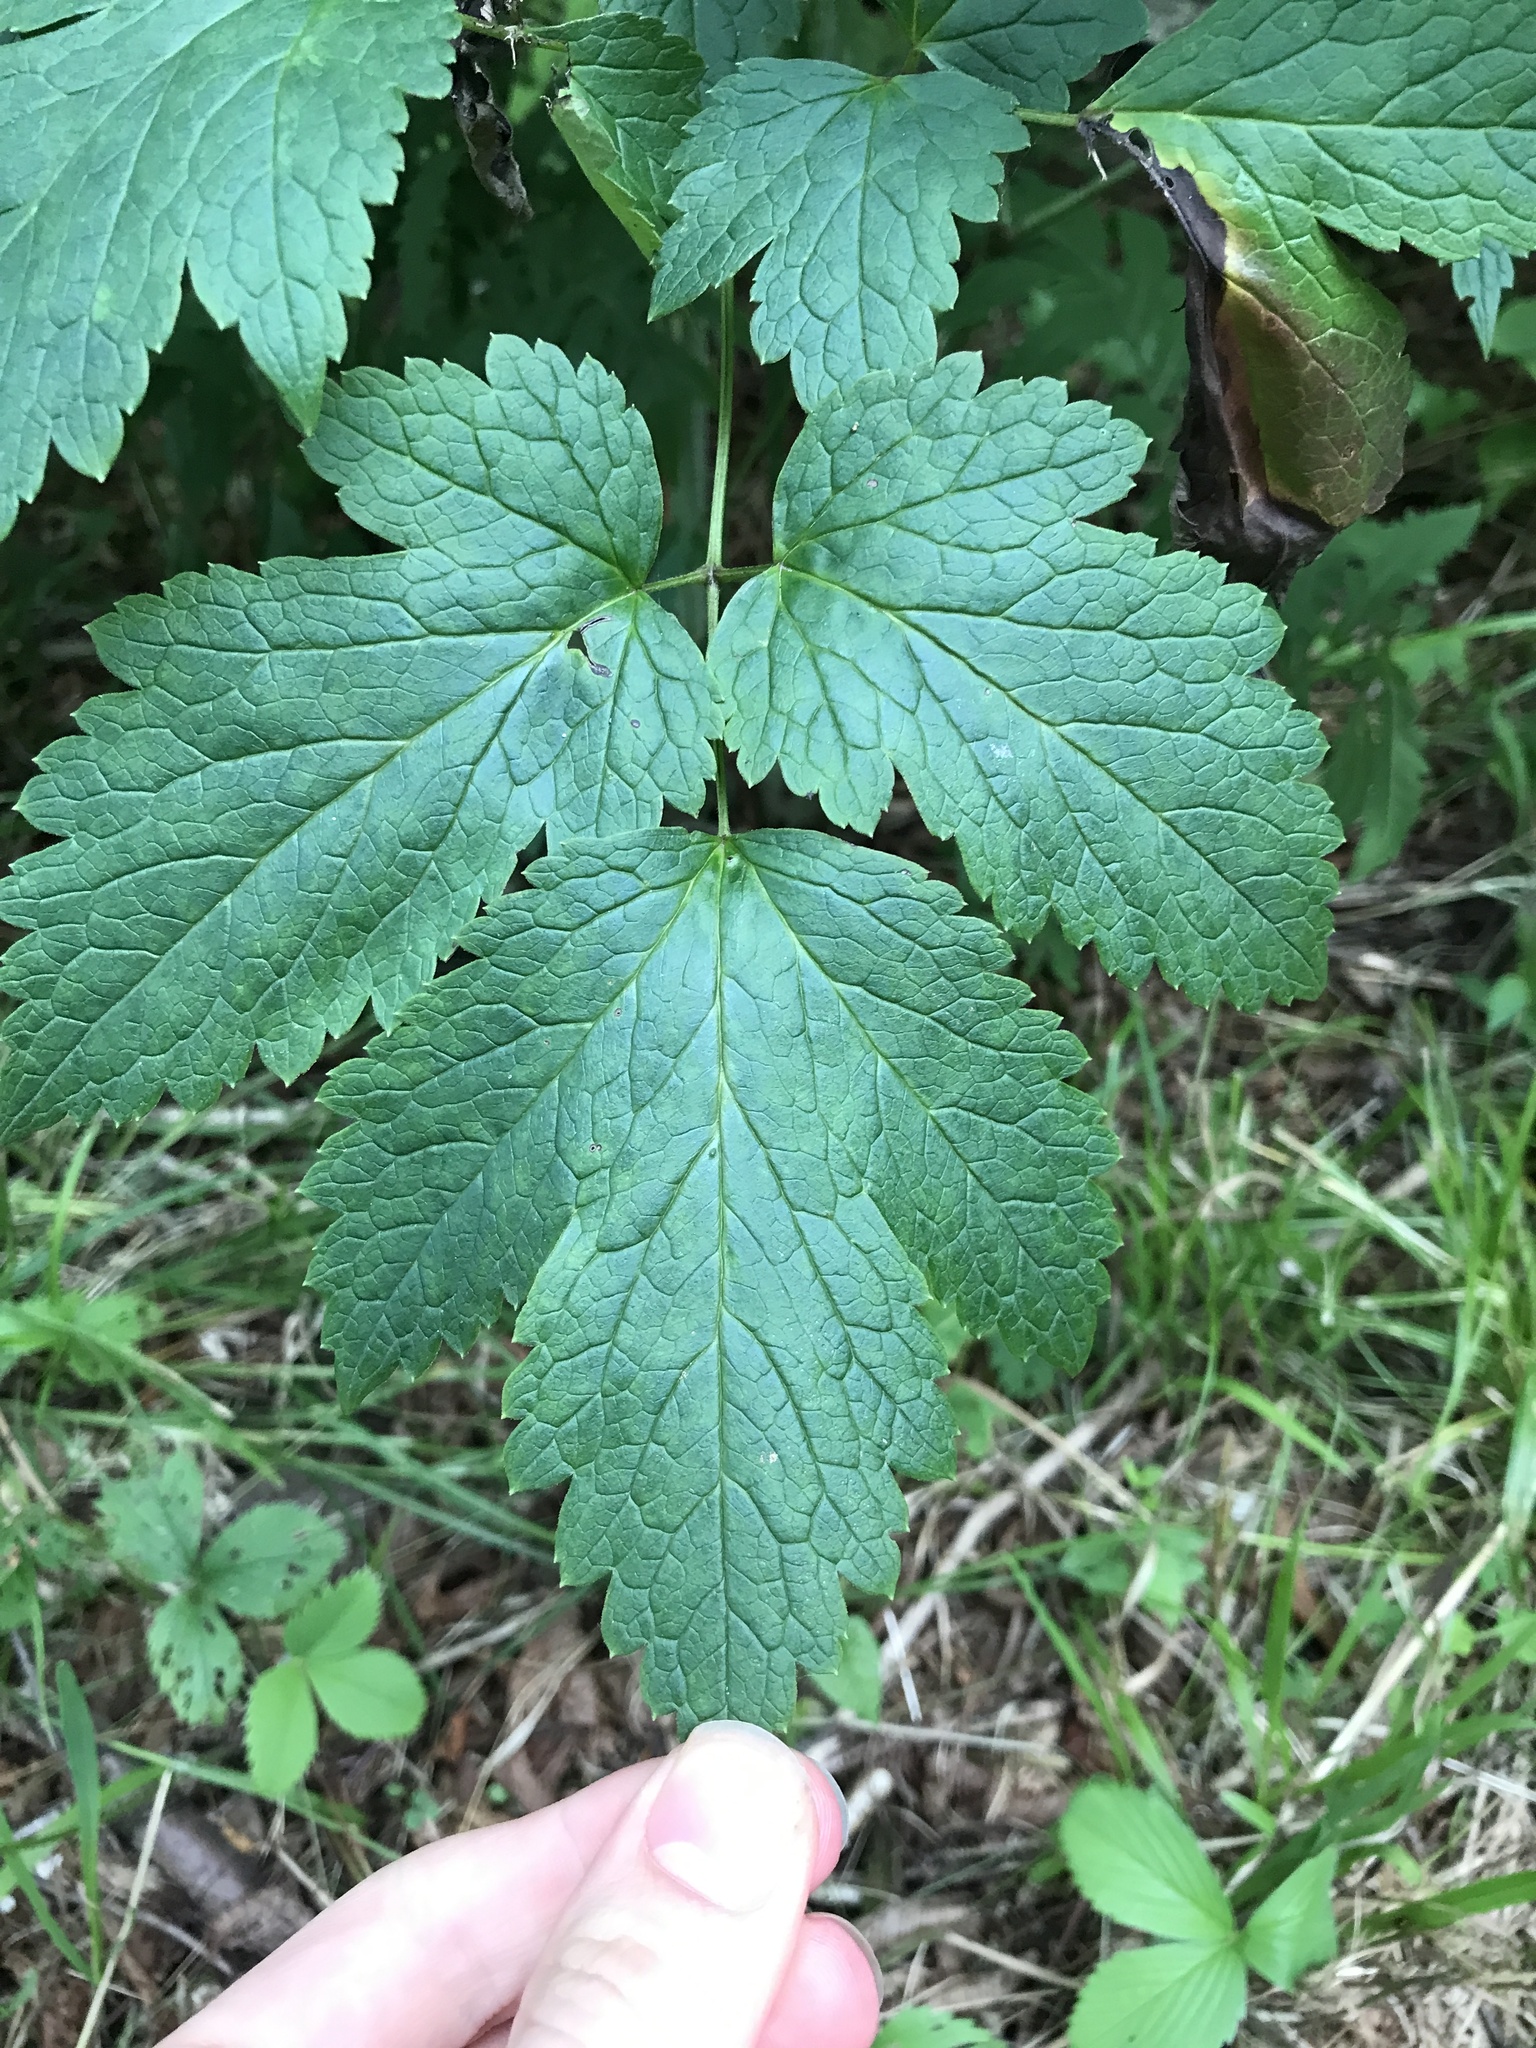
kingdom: Plantae
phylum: Tracheophyta
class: Magnoliopsida
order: Ranunculales
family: Ranunculaceae
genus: Actaea
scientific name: Actaea rubra
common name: Red baneberry
